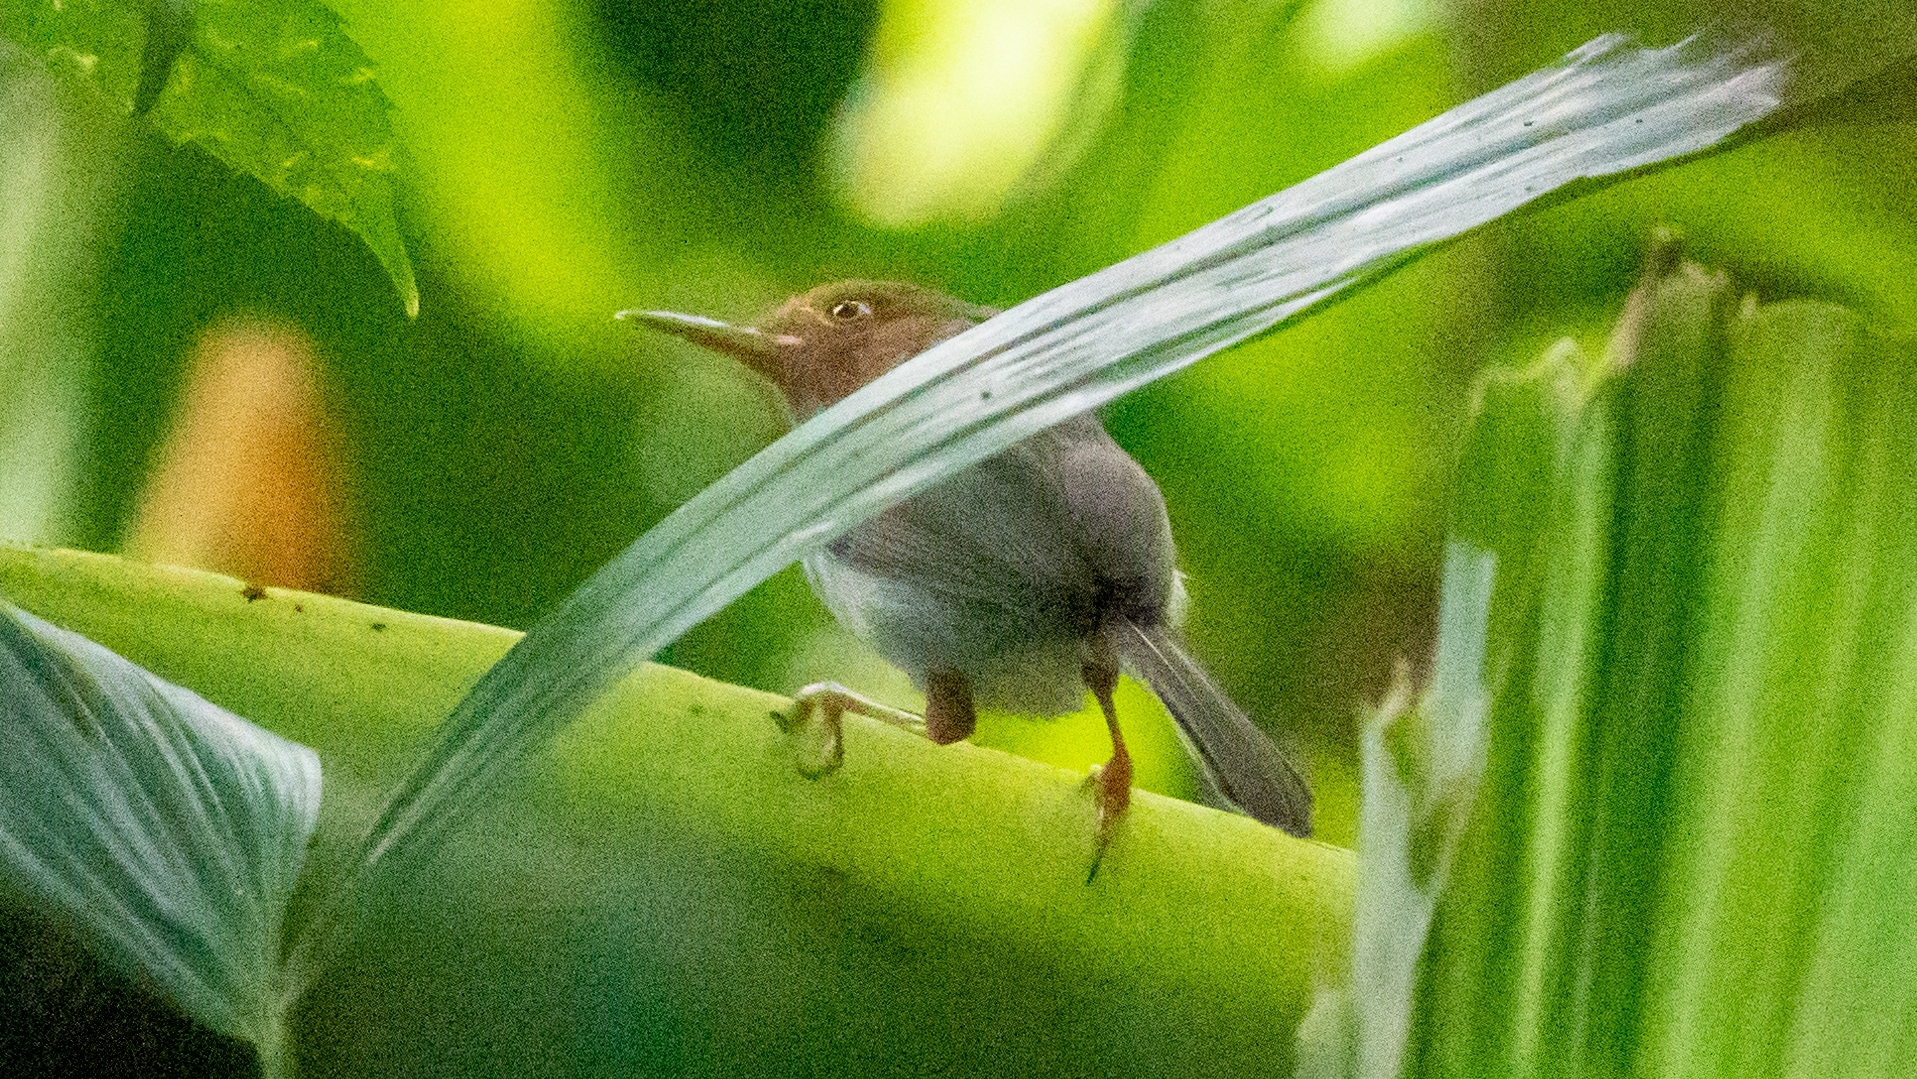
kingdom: Animalia
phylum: Chordata
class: Aves
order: Passeriformes
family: Cisticolidae
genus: Orthotomus
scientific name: Orthotomus ruficeps
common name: Ashy tailorbird
